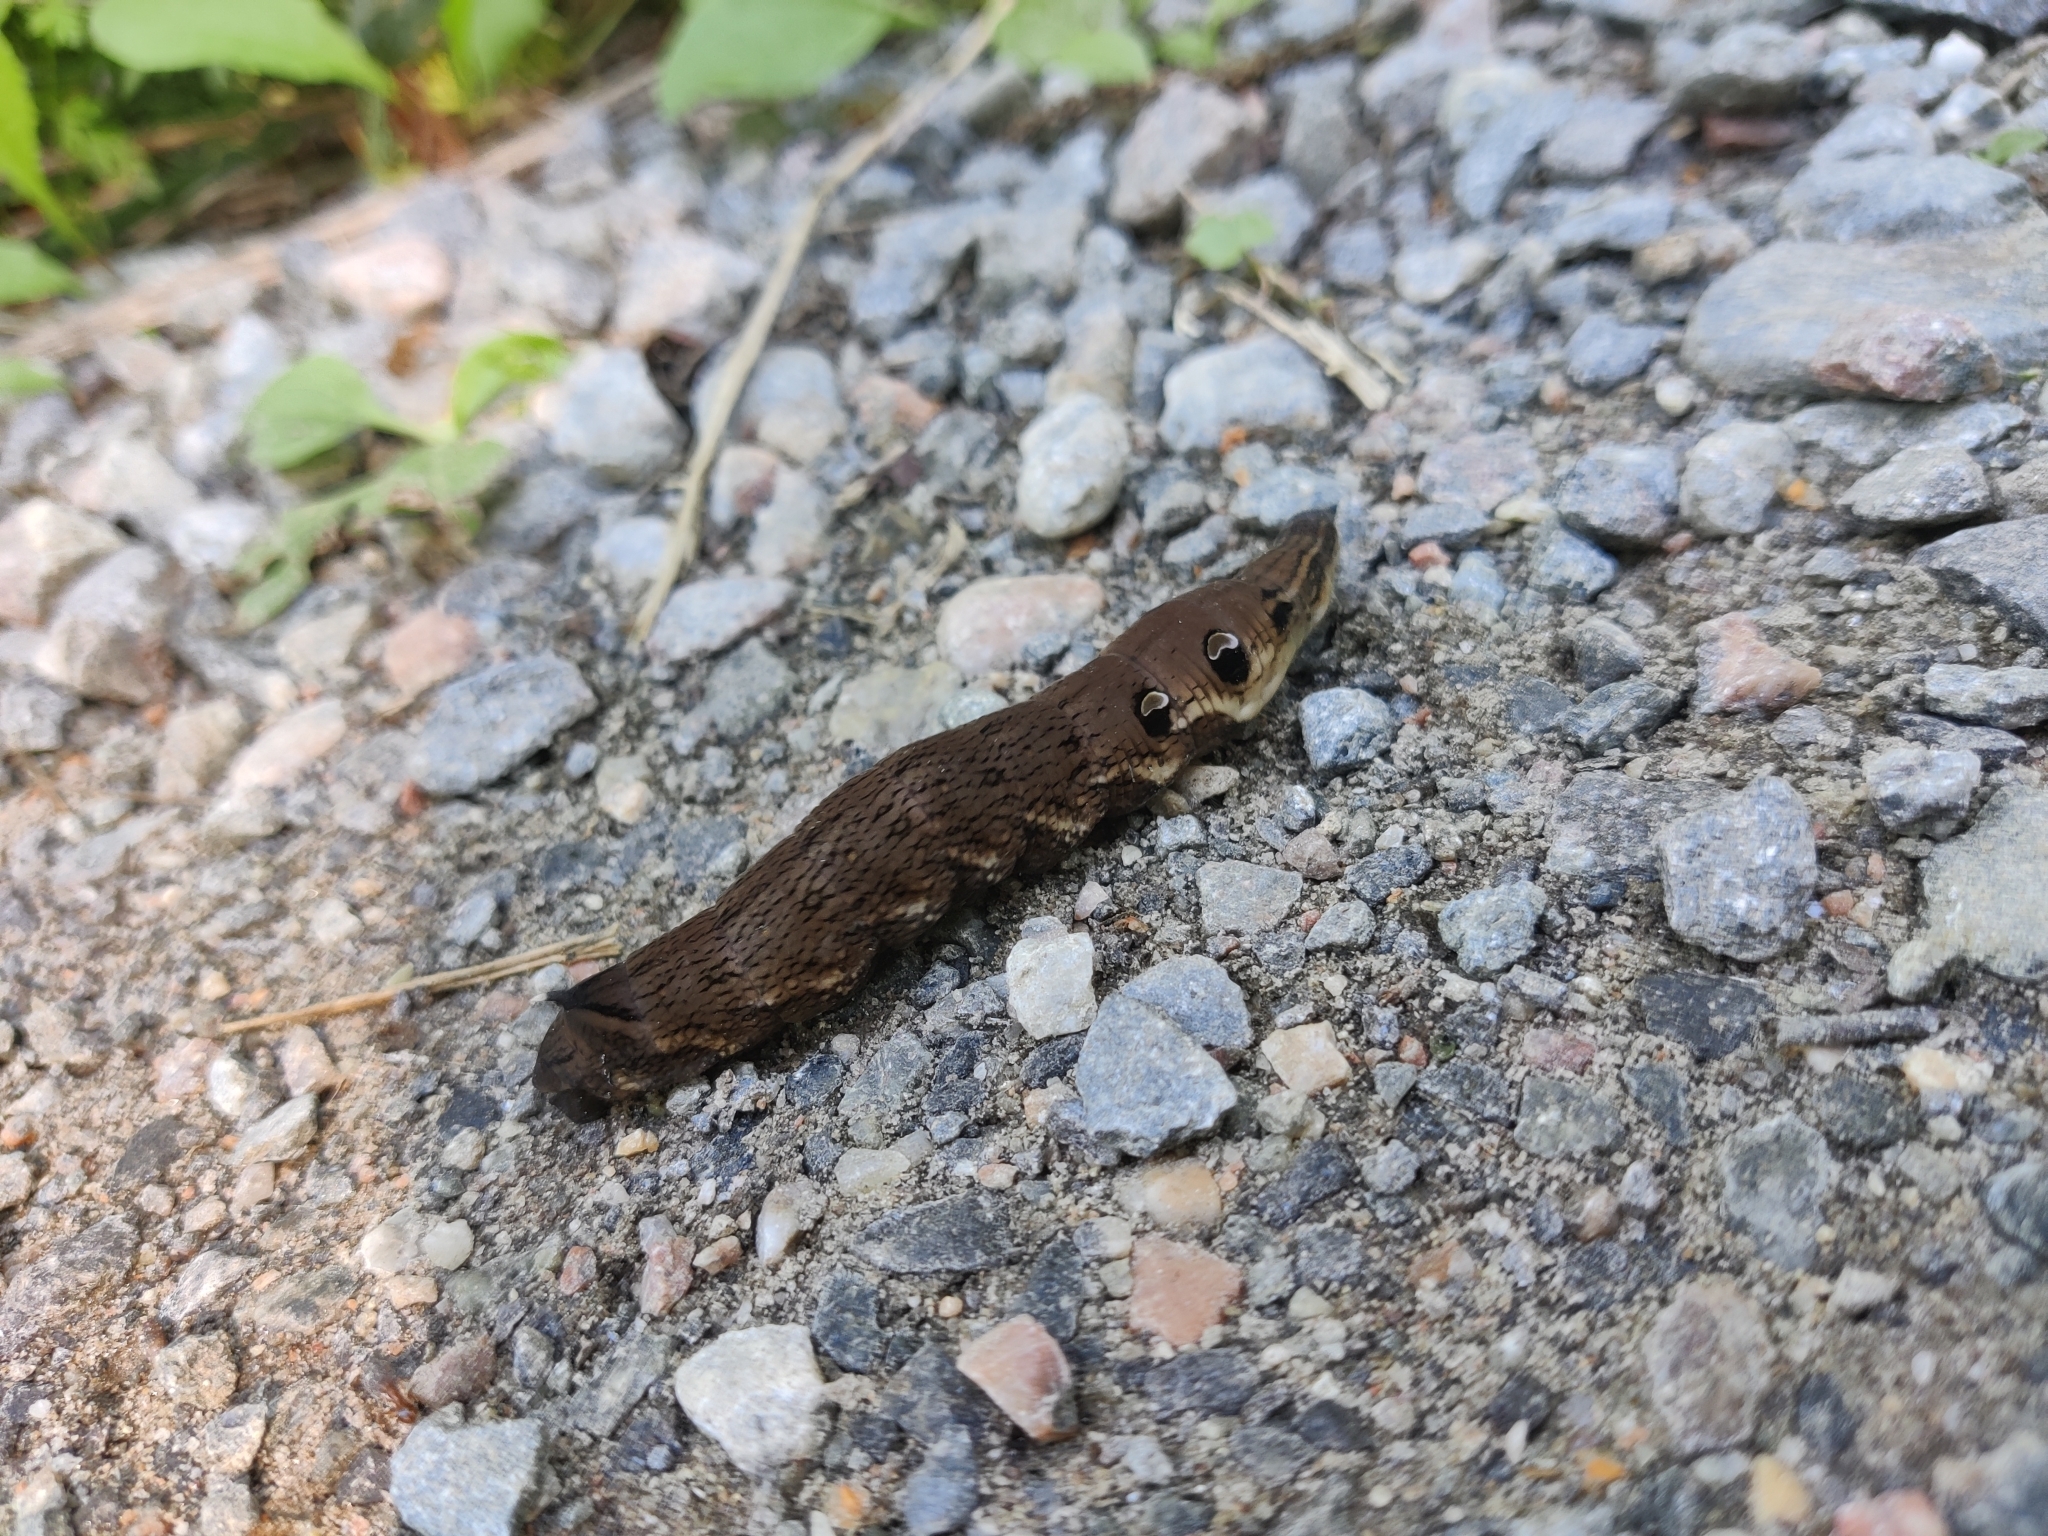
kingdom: Animalia
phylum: Arthropoda
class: Insecta
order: Lepidoptera
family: Sphingidae
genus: Deilephila
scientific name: Deilephila elpenor
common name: Elephant hawk-moth
